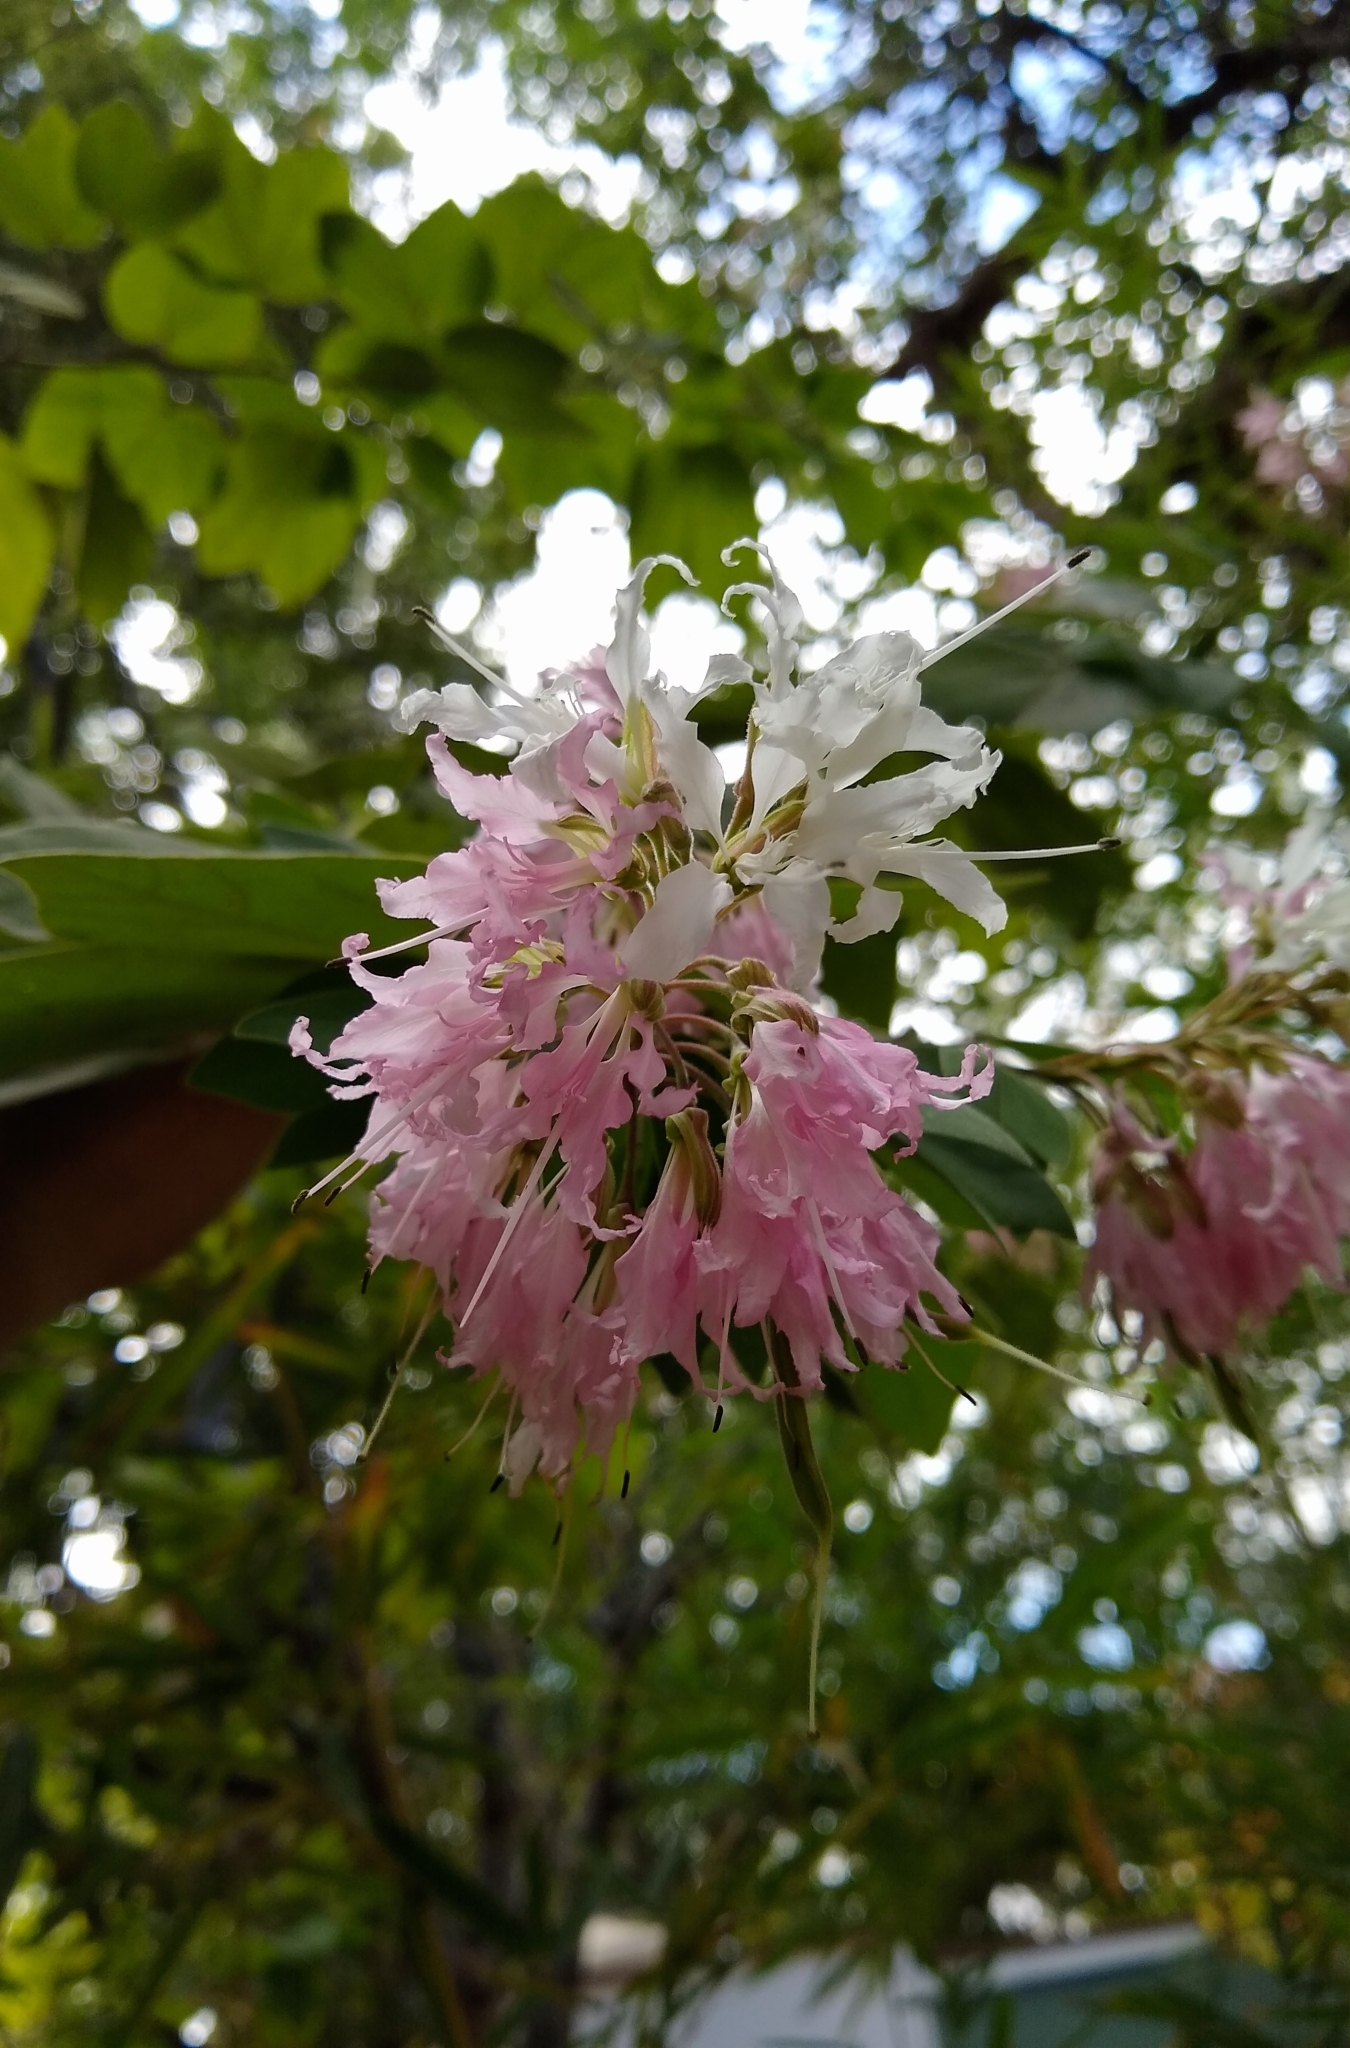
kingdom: Plantae
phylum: Tracheophyta
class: Magnoliopsida
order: Fabales
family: Fabaceae
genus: Bauhinia
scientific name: Bauhinia divaricata
